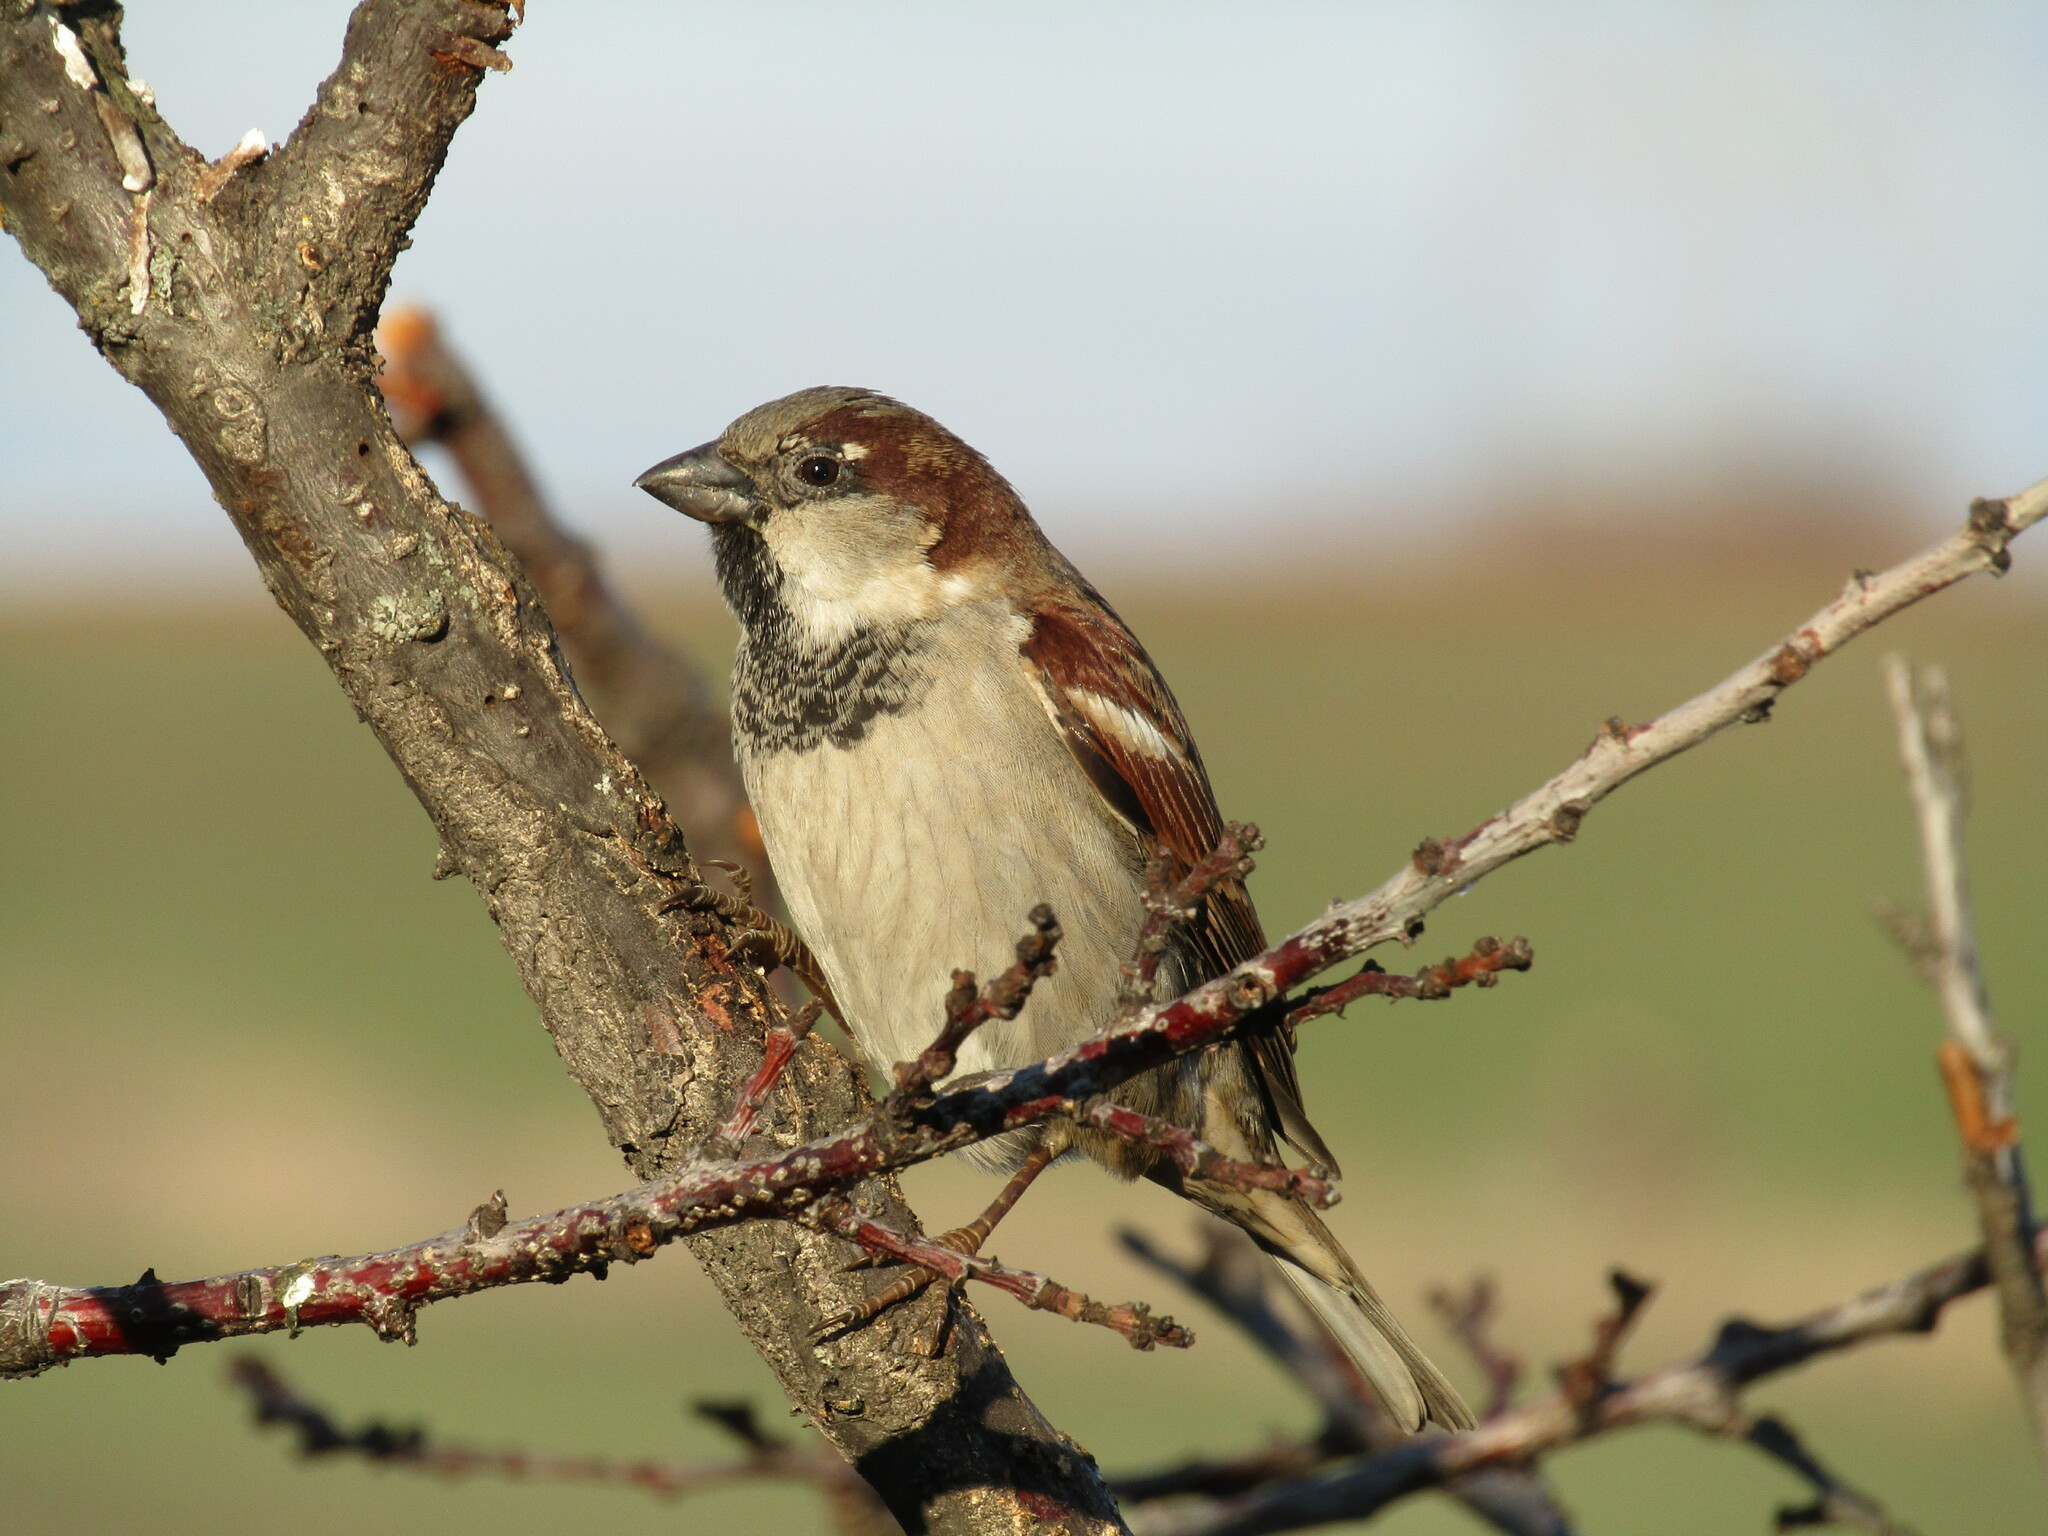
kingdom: Animalia
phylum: Chordata
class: Aves
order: Passeriformes
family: Passeridae
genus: Passer
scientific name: Passer domesticus
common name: House sparrow
